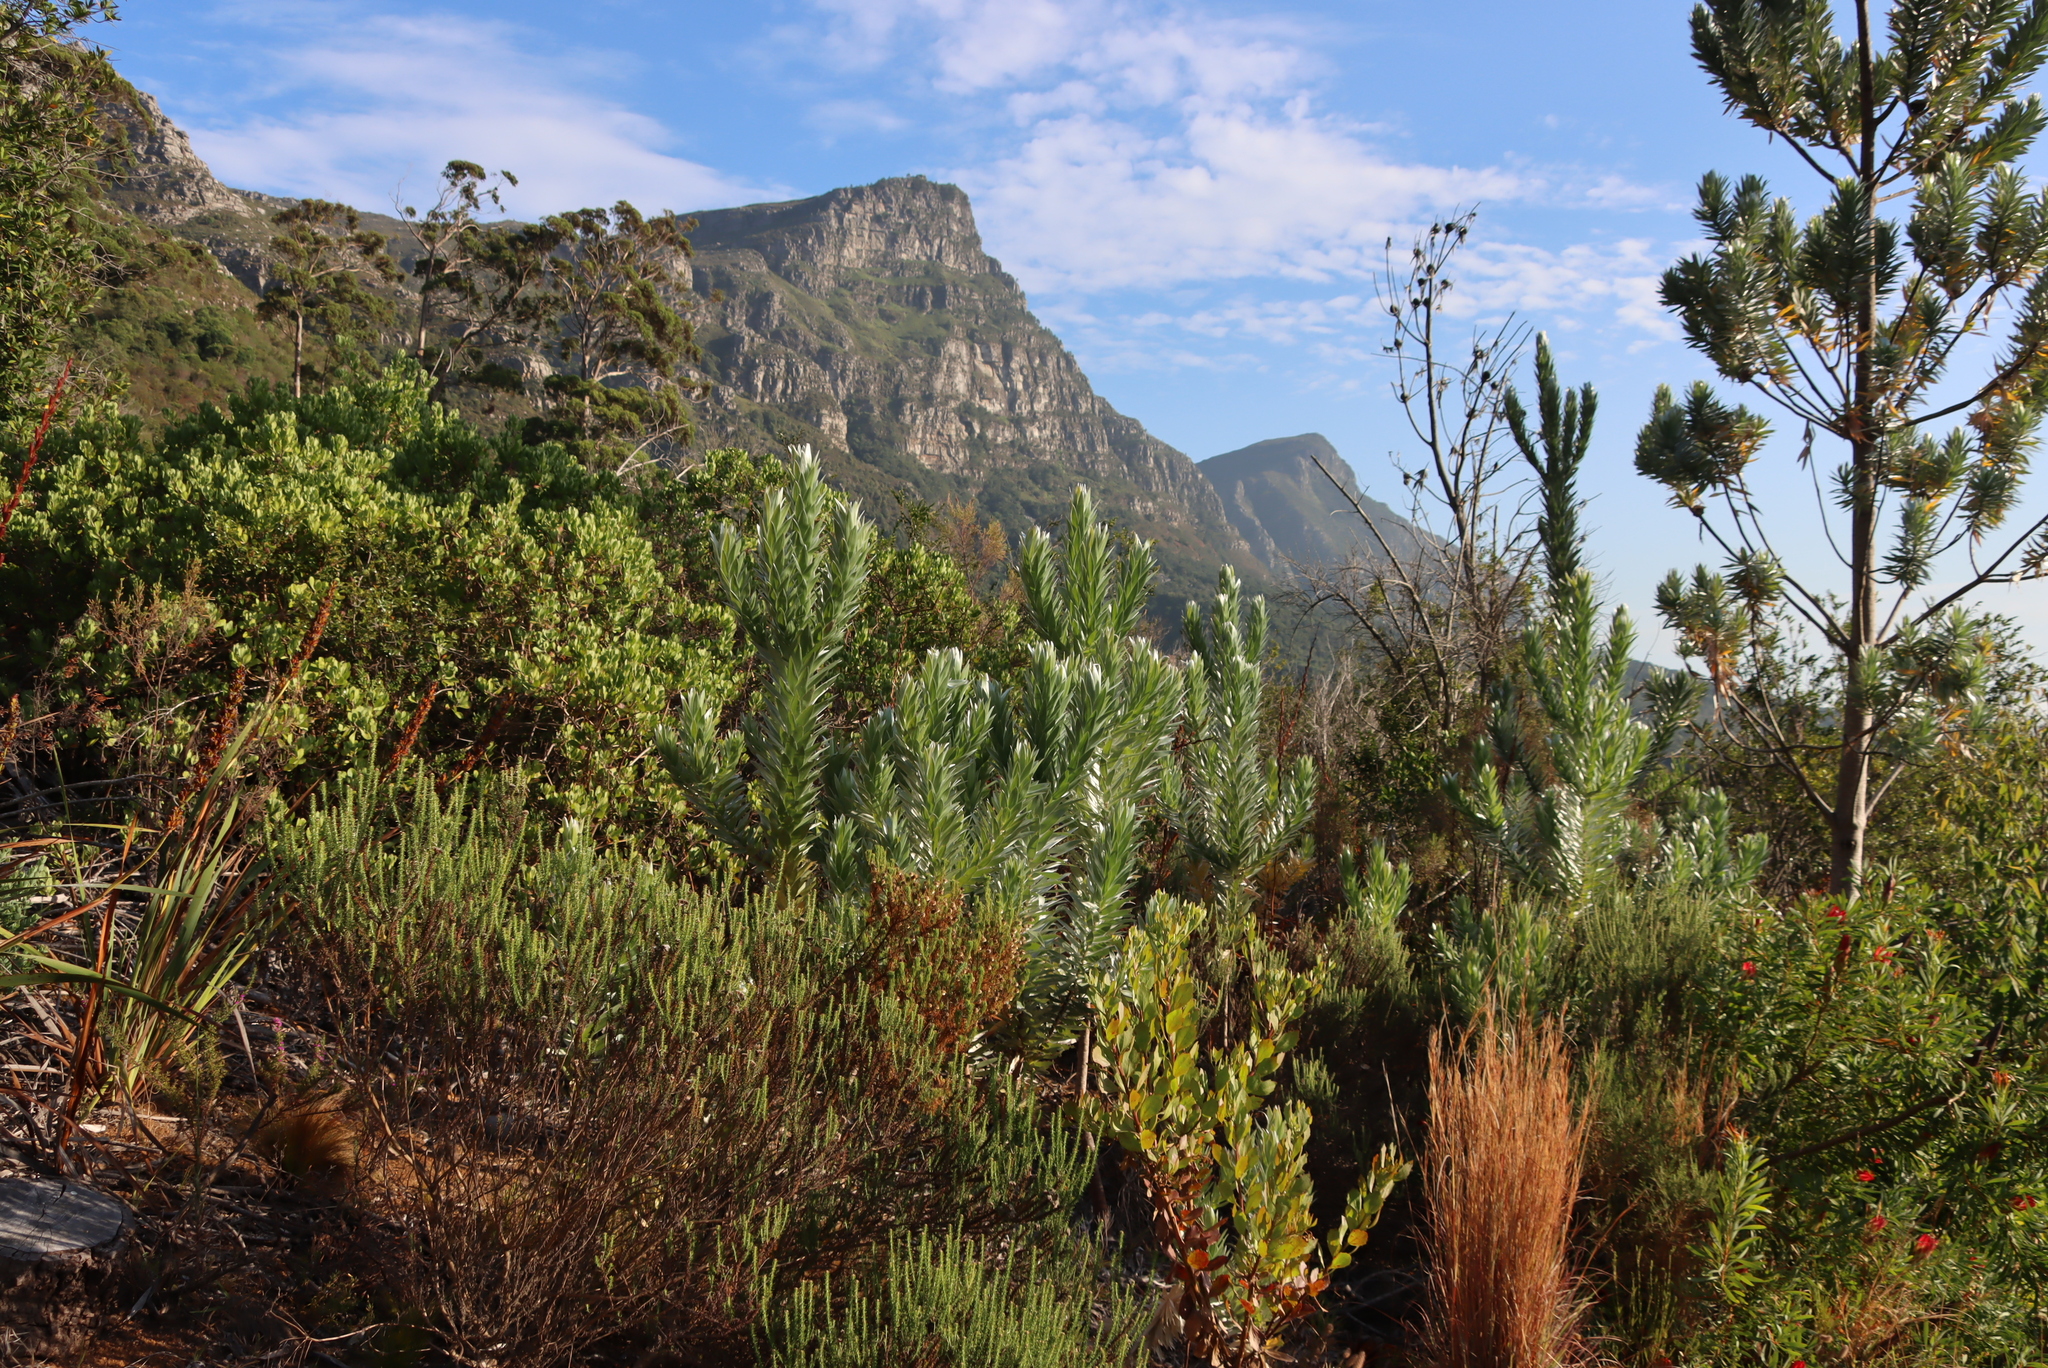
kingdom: Plantae
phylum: Tracheophyta
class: Magnoliopsida
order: Proteales
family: Proteaceae
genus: Leucadendron
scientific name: Leucadendron argenteum
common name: Cape silver tree
